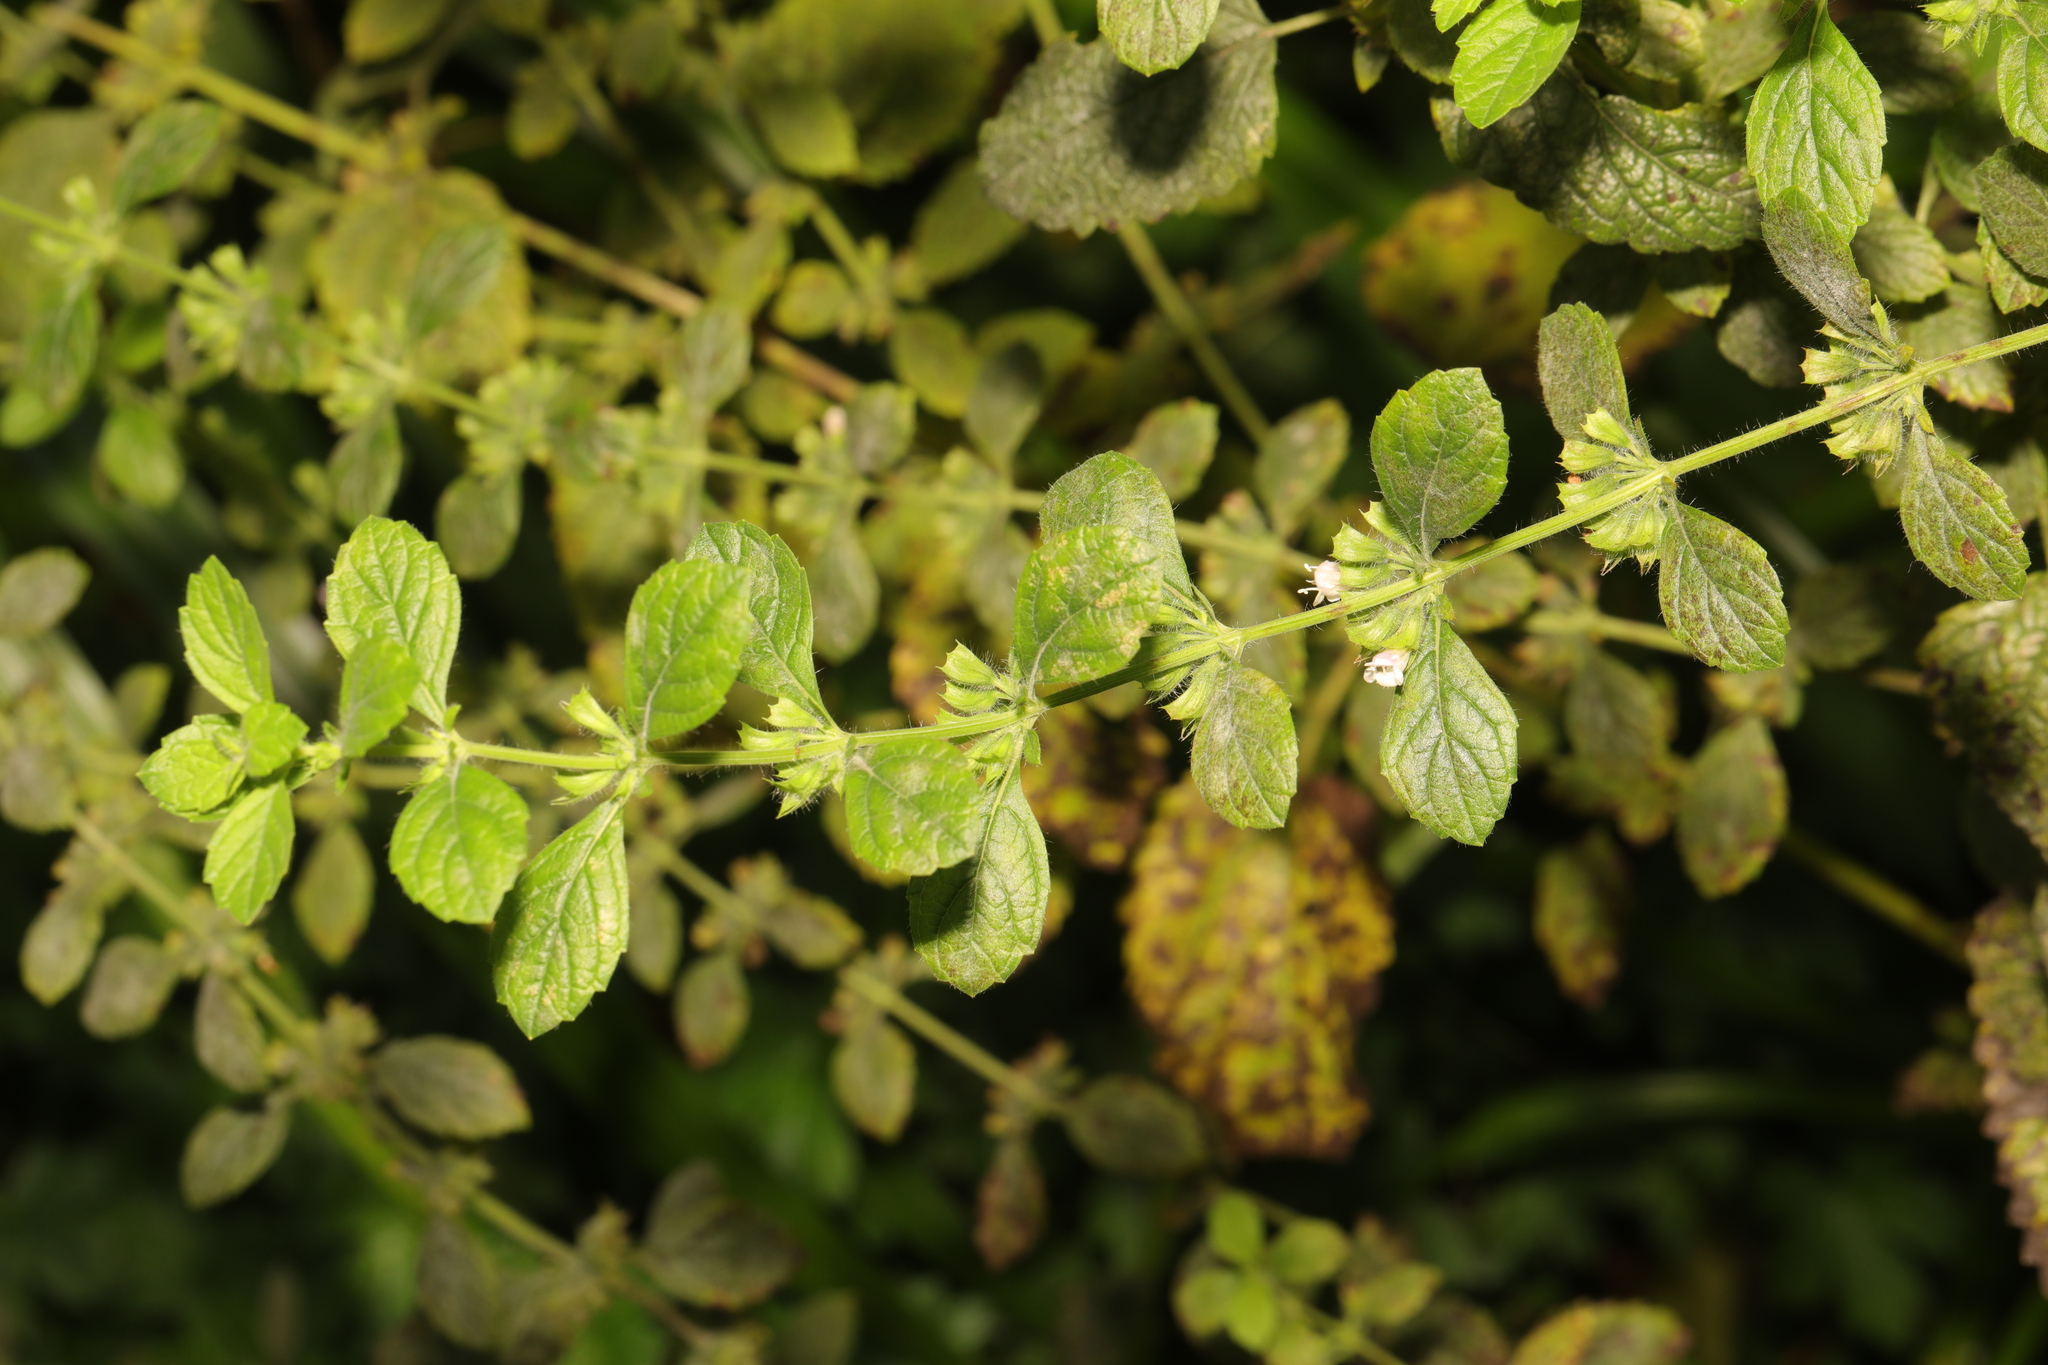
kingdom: Plantae
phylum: Tracheophyta
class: Magnoliopsida
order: Lamiales
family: Lamiaceae
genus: Melissa
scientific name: Melissa officinalis
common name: Balm
